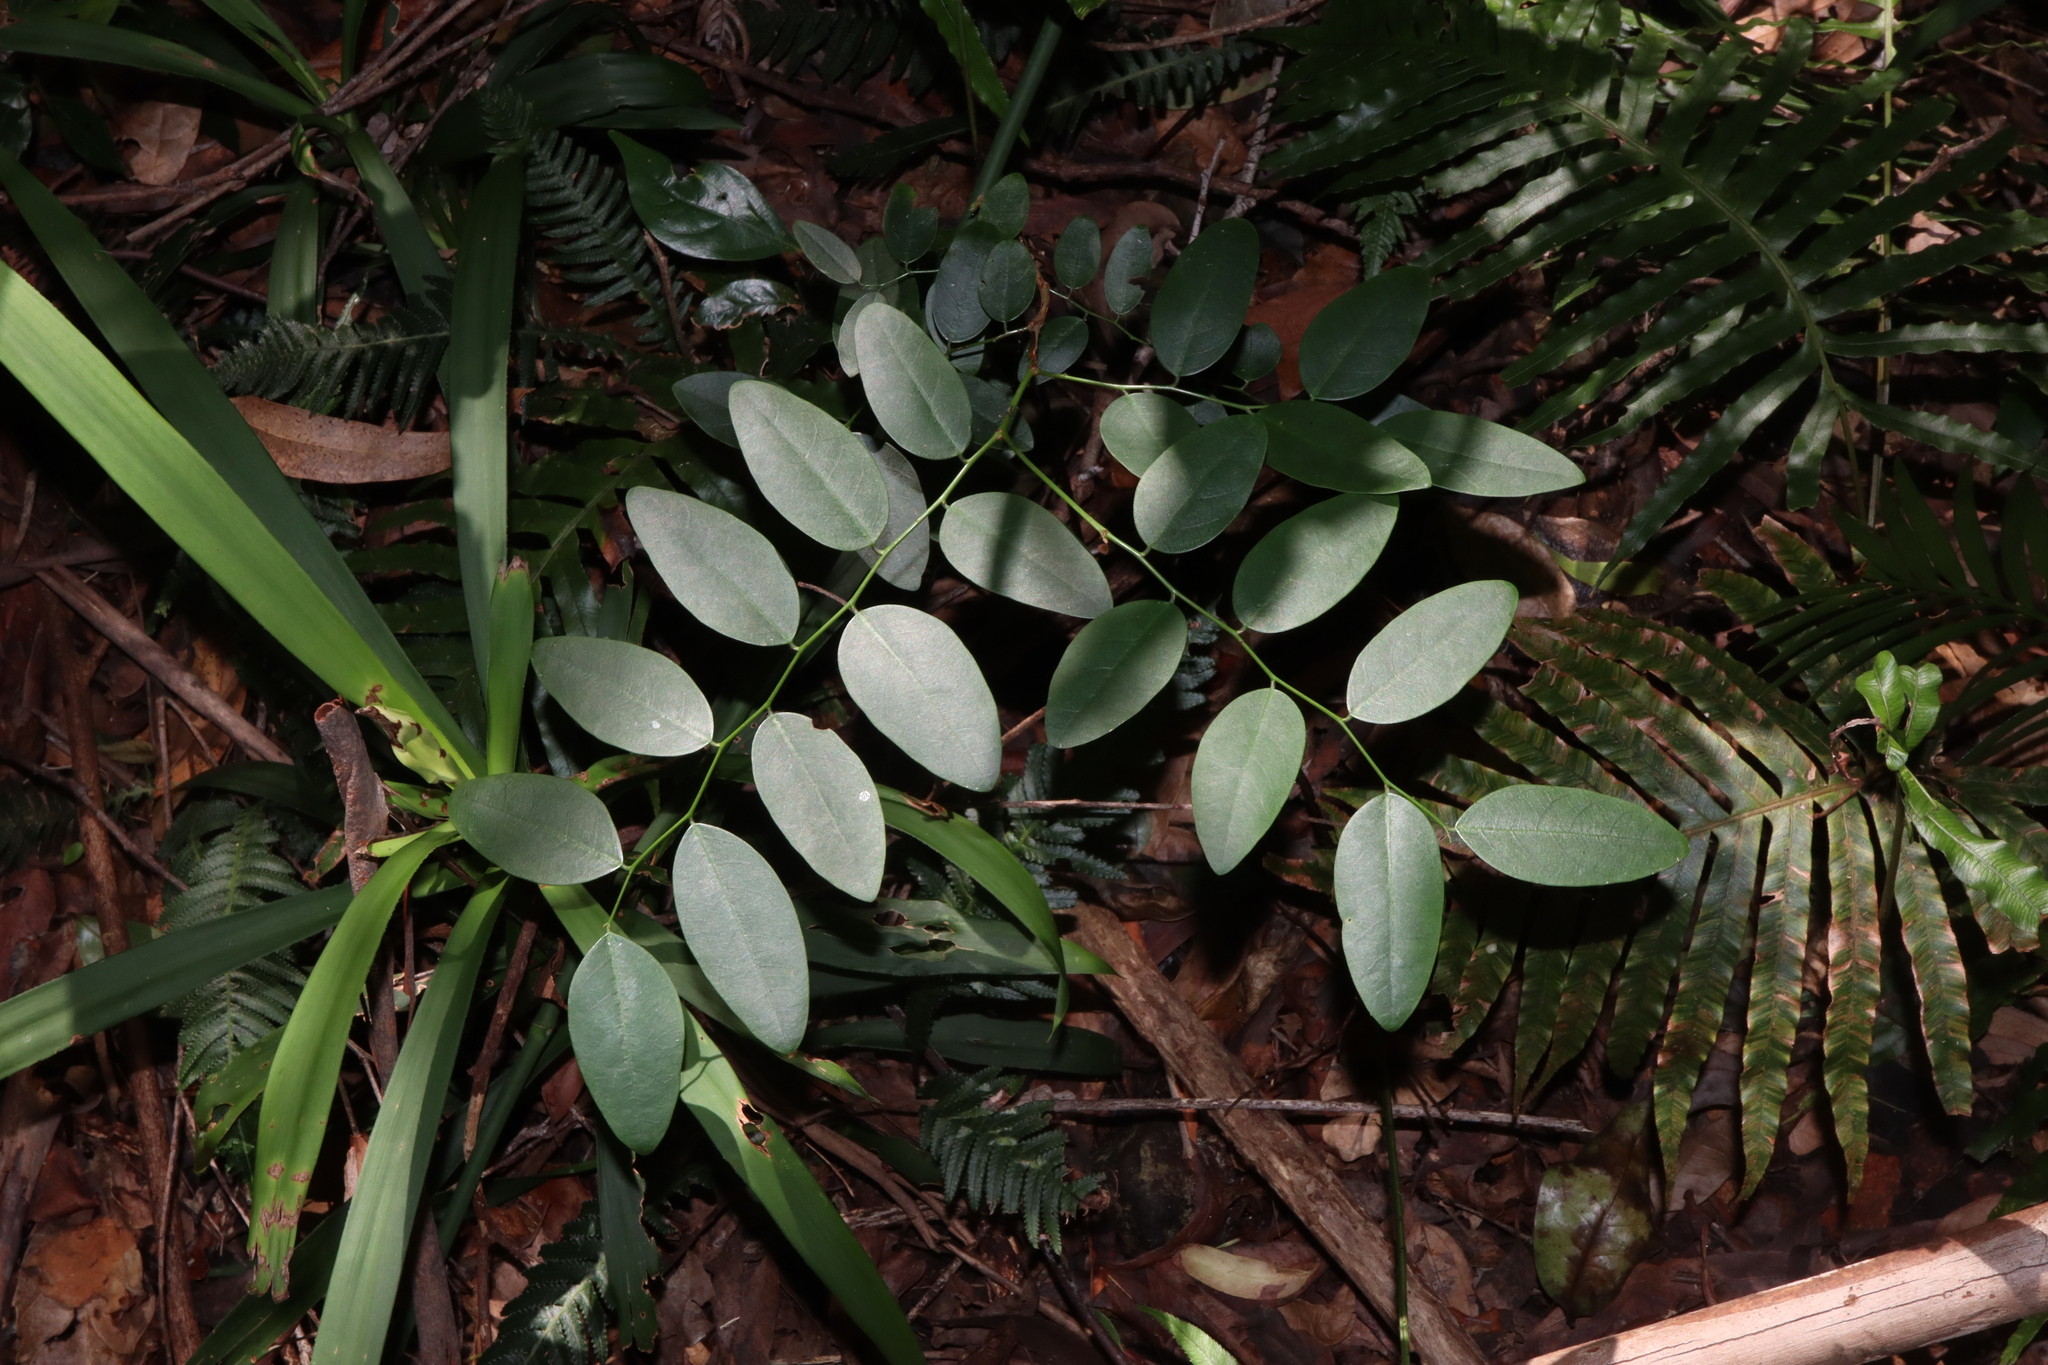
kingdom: Plantae
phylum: Tracheophyta
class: Magnoliopsida
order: Malpighiales
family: Phyllanthaceae
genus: Breynia
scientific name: Breynia oblongifolia
